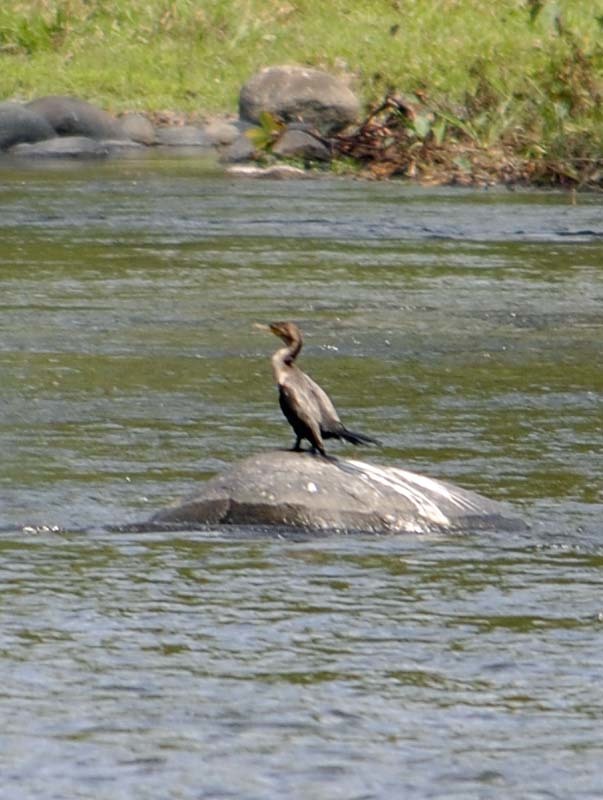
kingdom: Animalia
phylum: Chordata
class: Aves
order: Suliformes
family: Phalacrocoracidae
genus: Phalacrocorax
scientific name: Phalacrocorax brasilianus
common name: Neotropic cormorant
